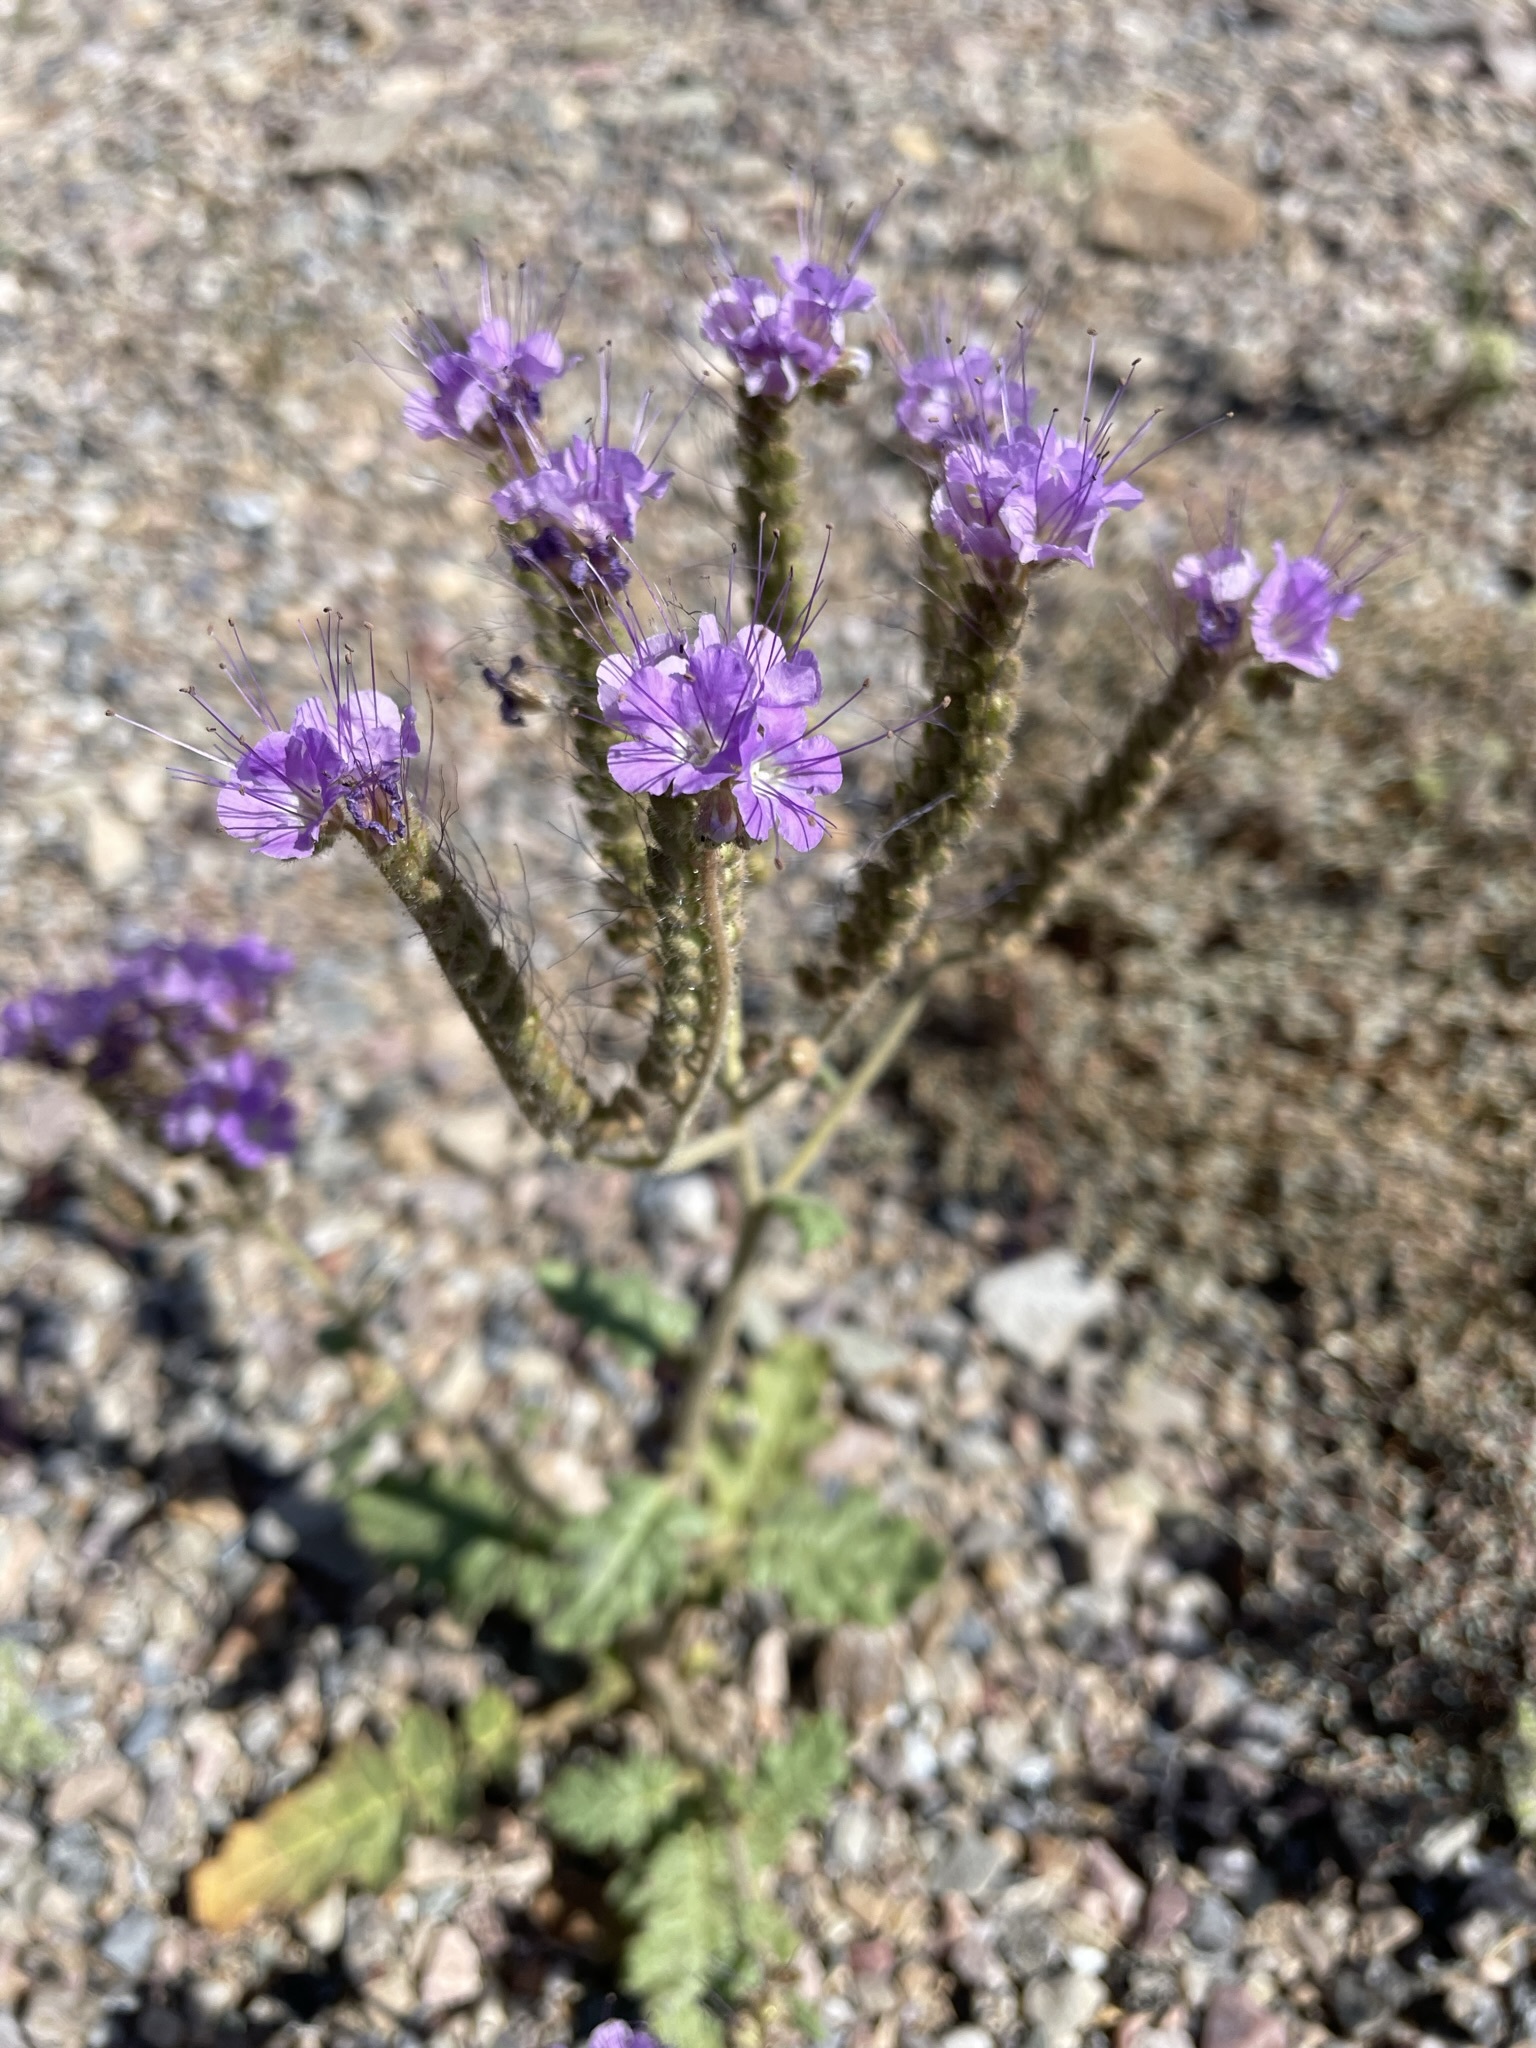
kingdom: Plantae
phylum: Tracheophyta
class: Magnoliopsida
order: Boraginales
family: Hydrophyllaceae
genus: Phacelia
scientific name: Phacelia crenulata
